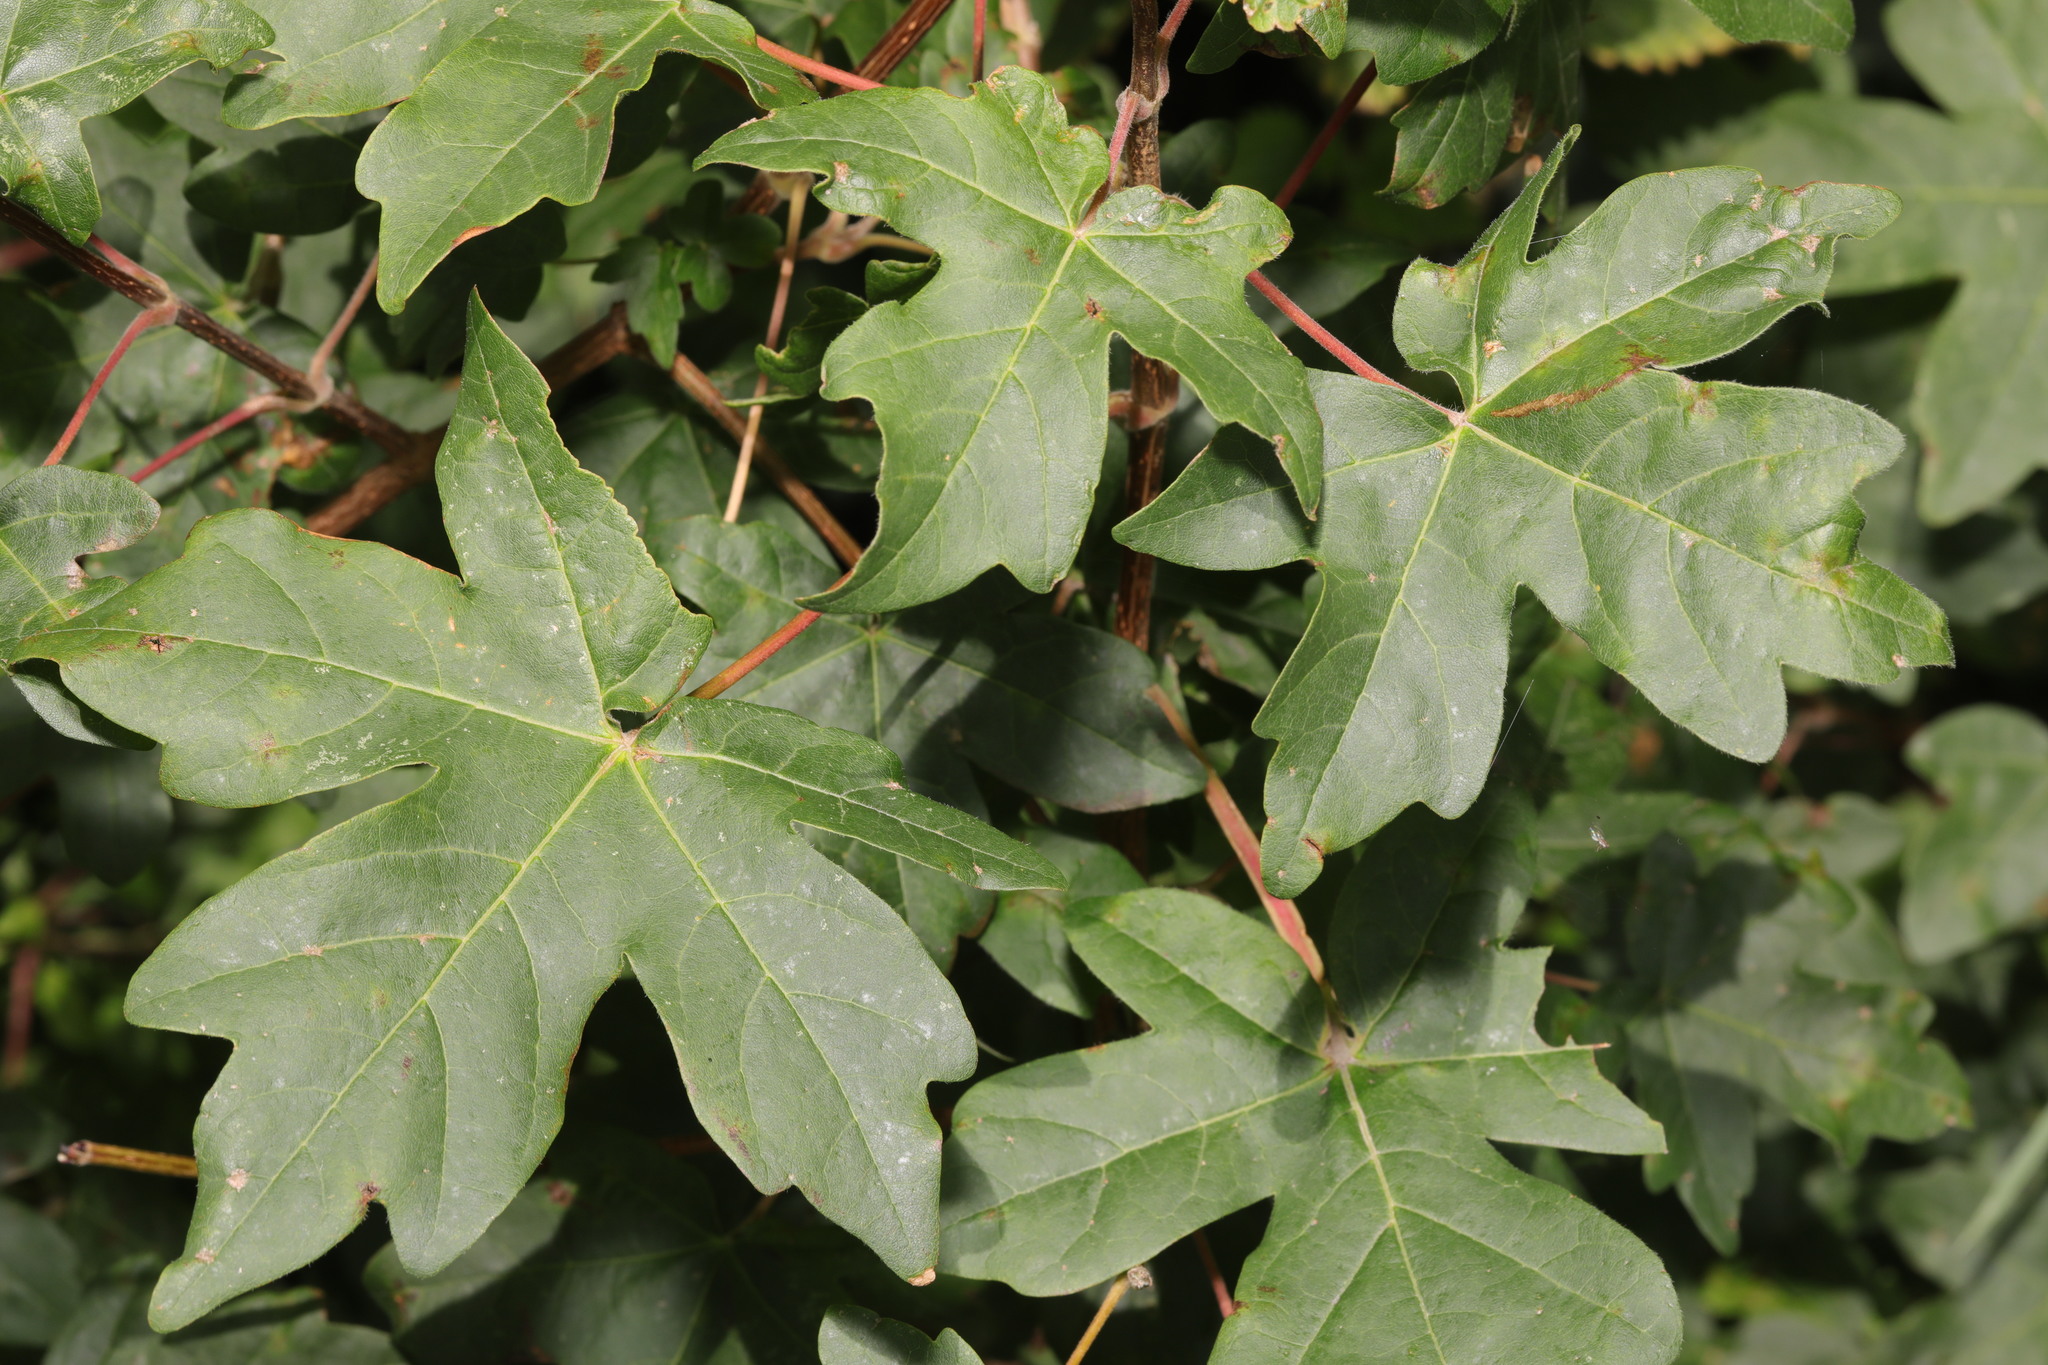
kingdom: Plantae
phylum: Tracheophyta
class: Magnoliopsida
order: Sapindales
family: Sapindaceae
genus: Acer
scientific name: Acer campestre
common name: Field maple
